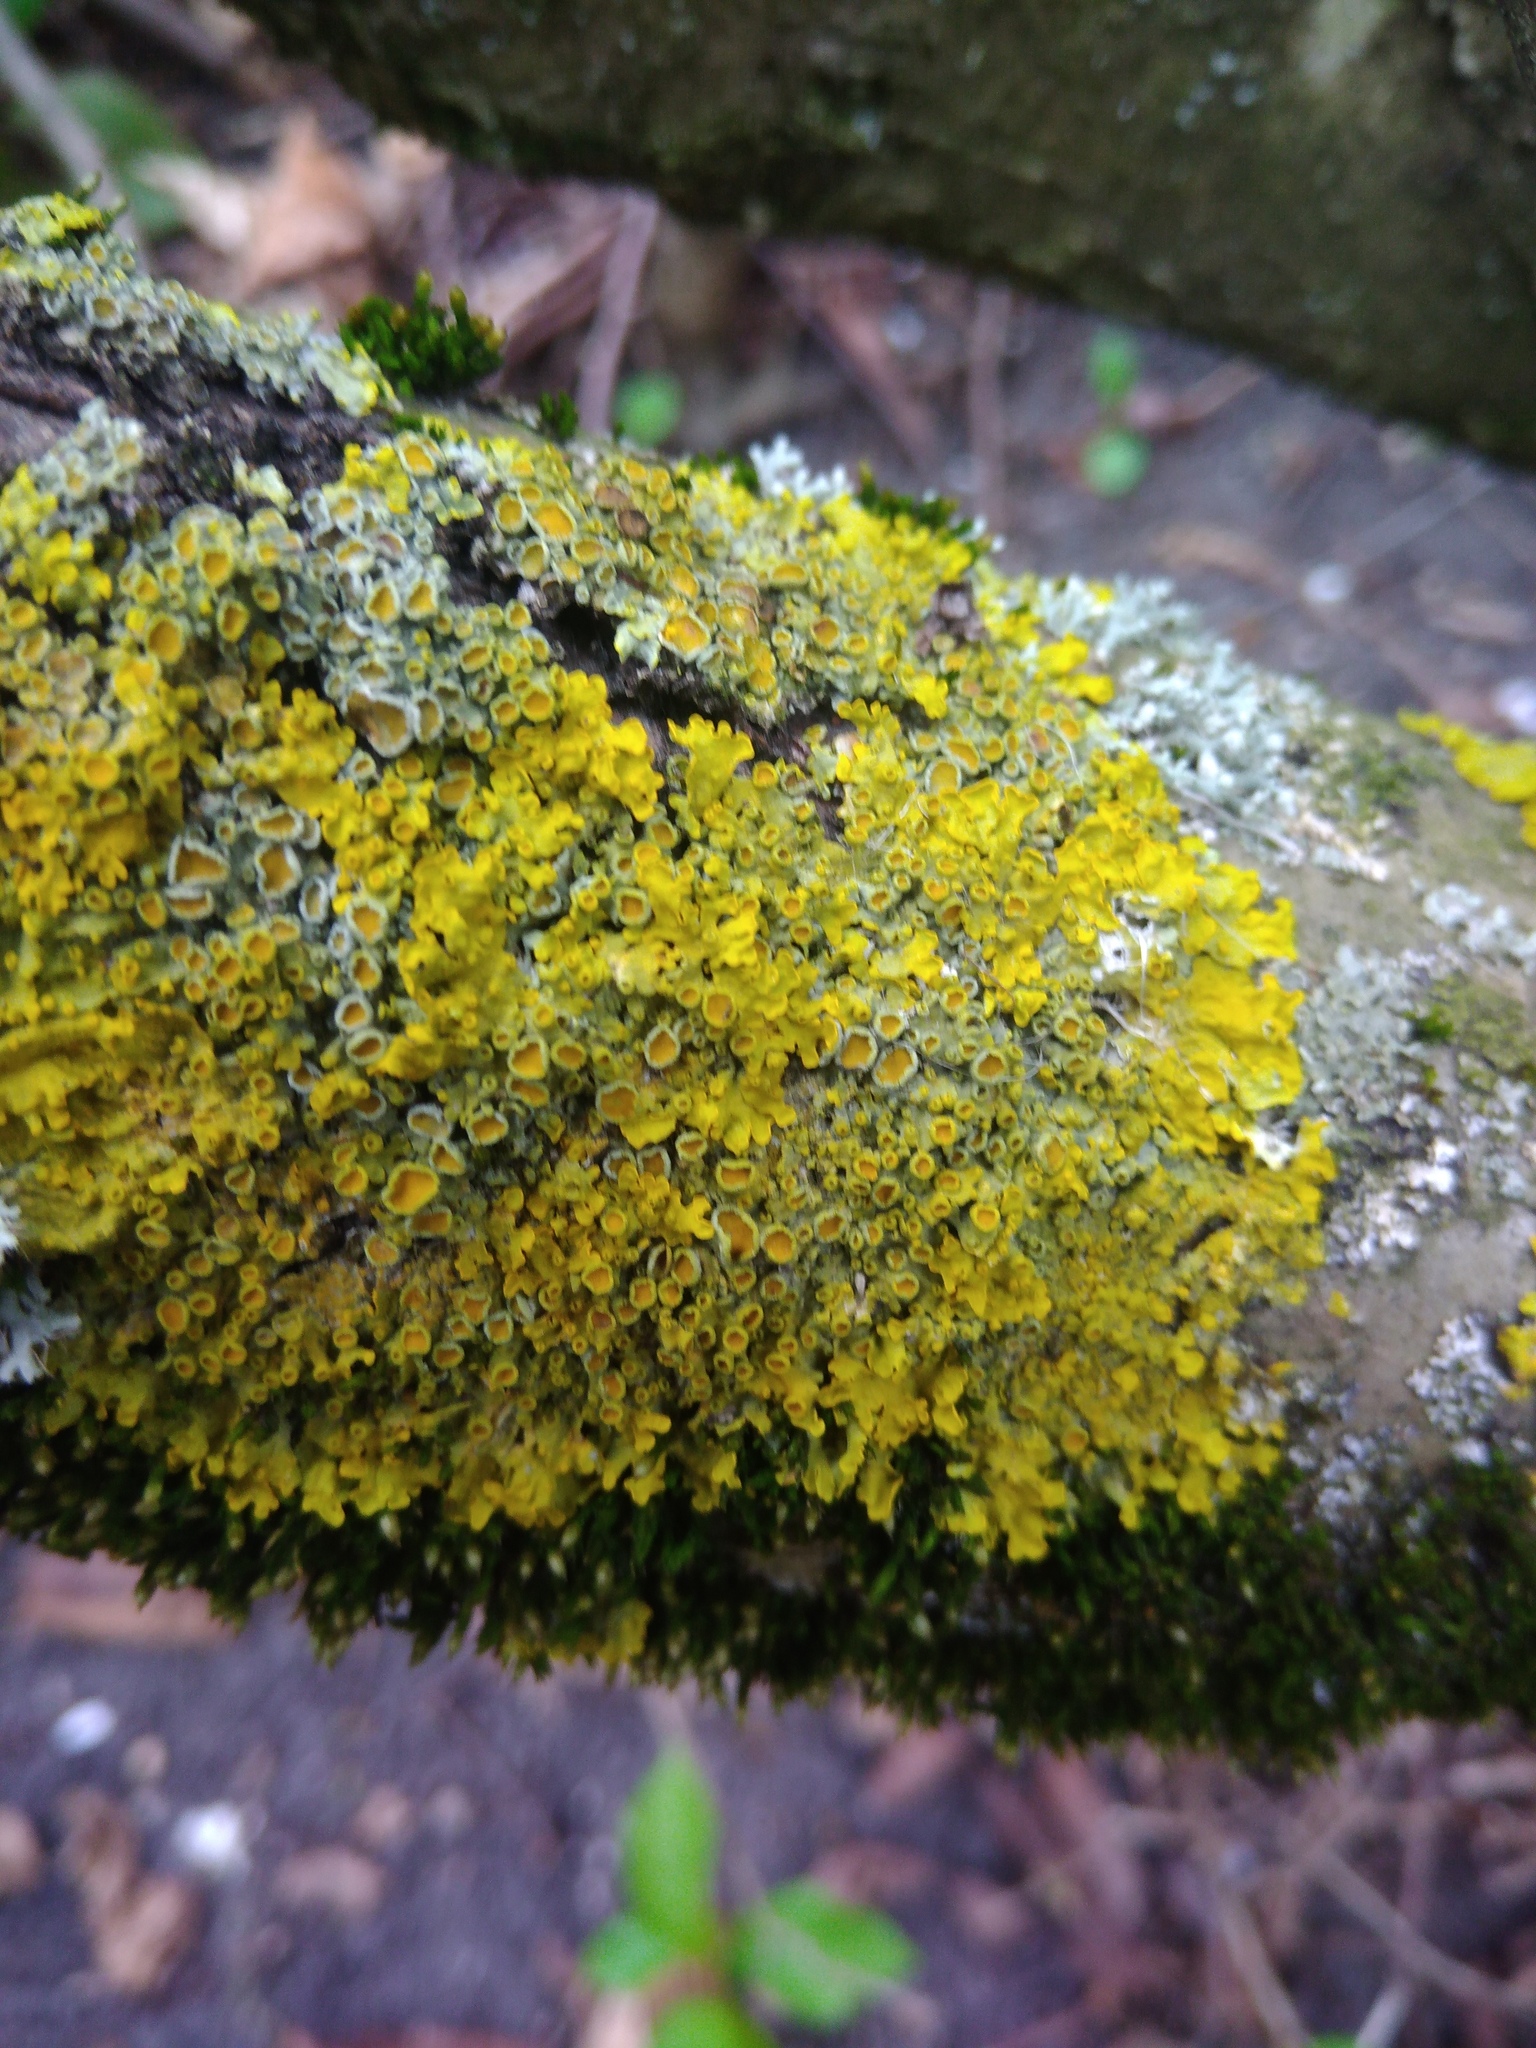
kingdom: Fungi
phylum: Ascomycota
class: Lecanoromycetes
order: Teloschistales
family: Teloschistaceae
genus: Xanthoria
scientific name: Xanthoria parietina
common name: Common orange lichen
